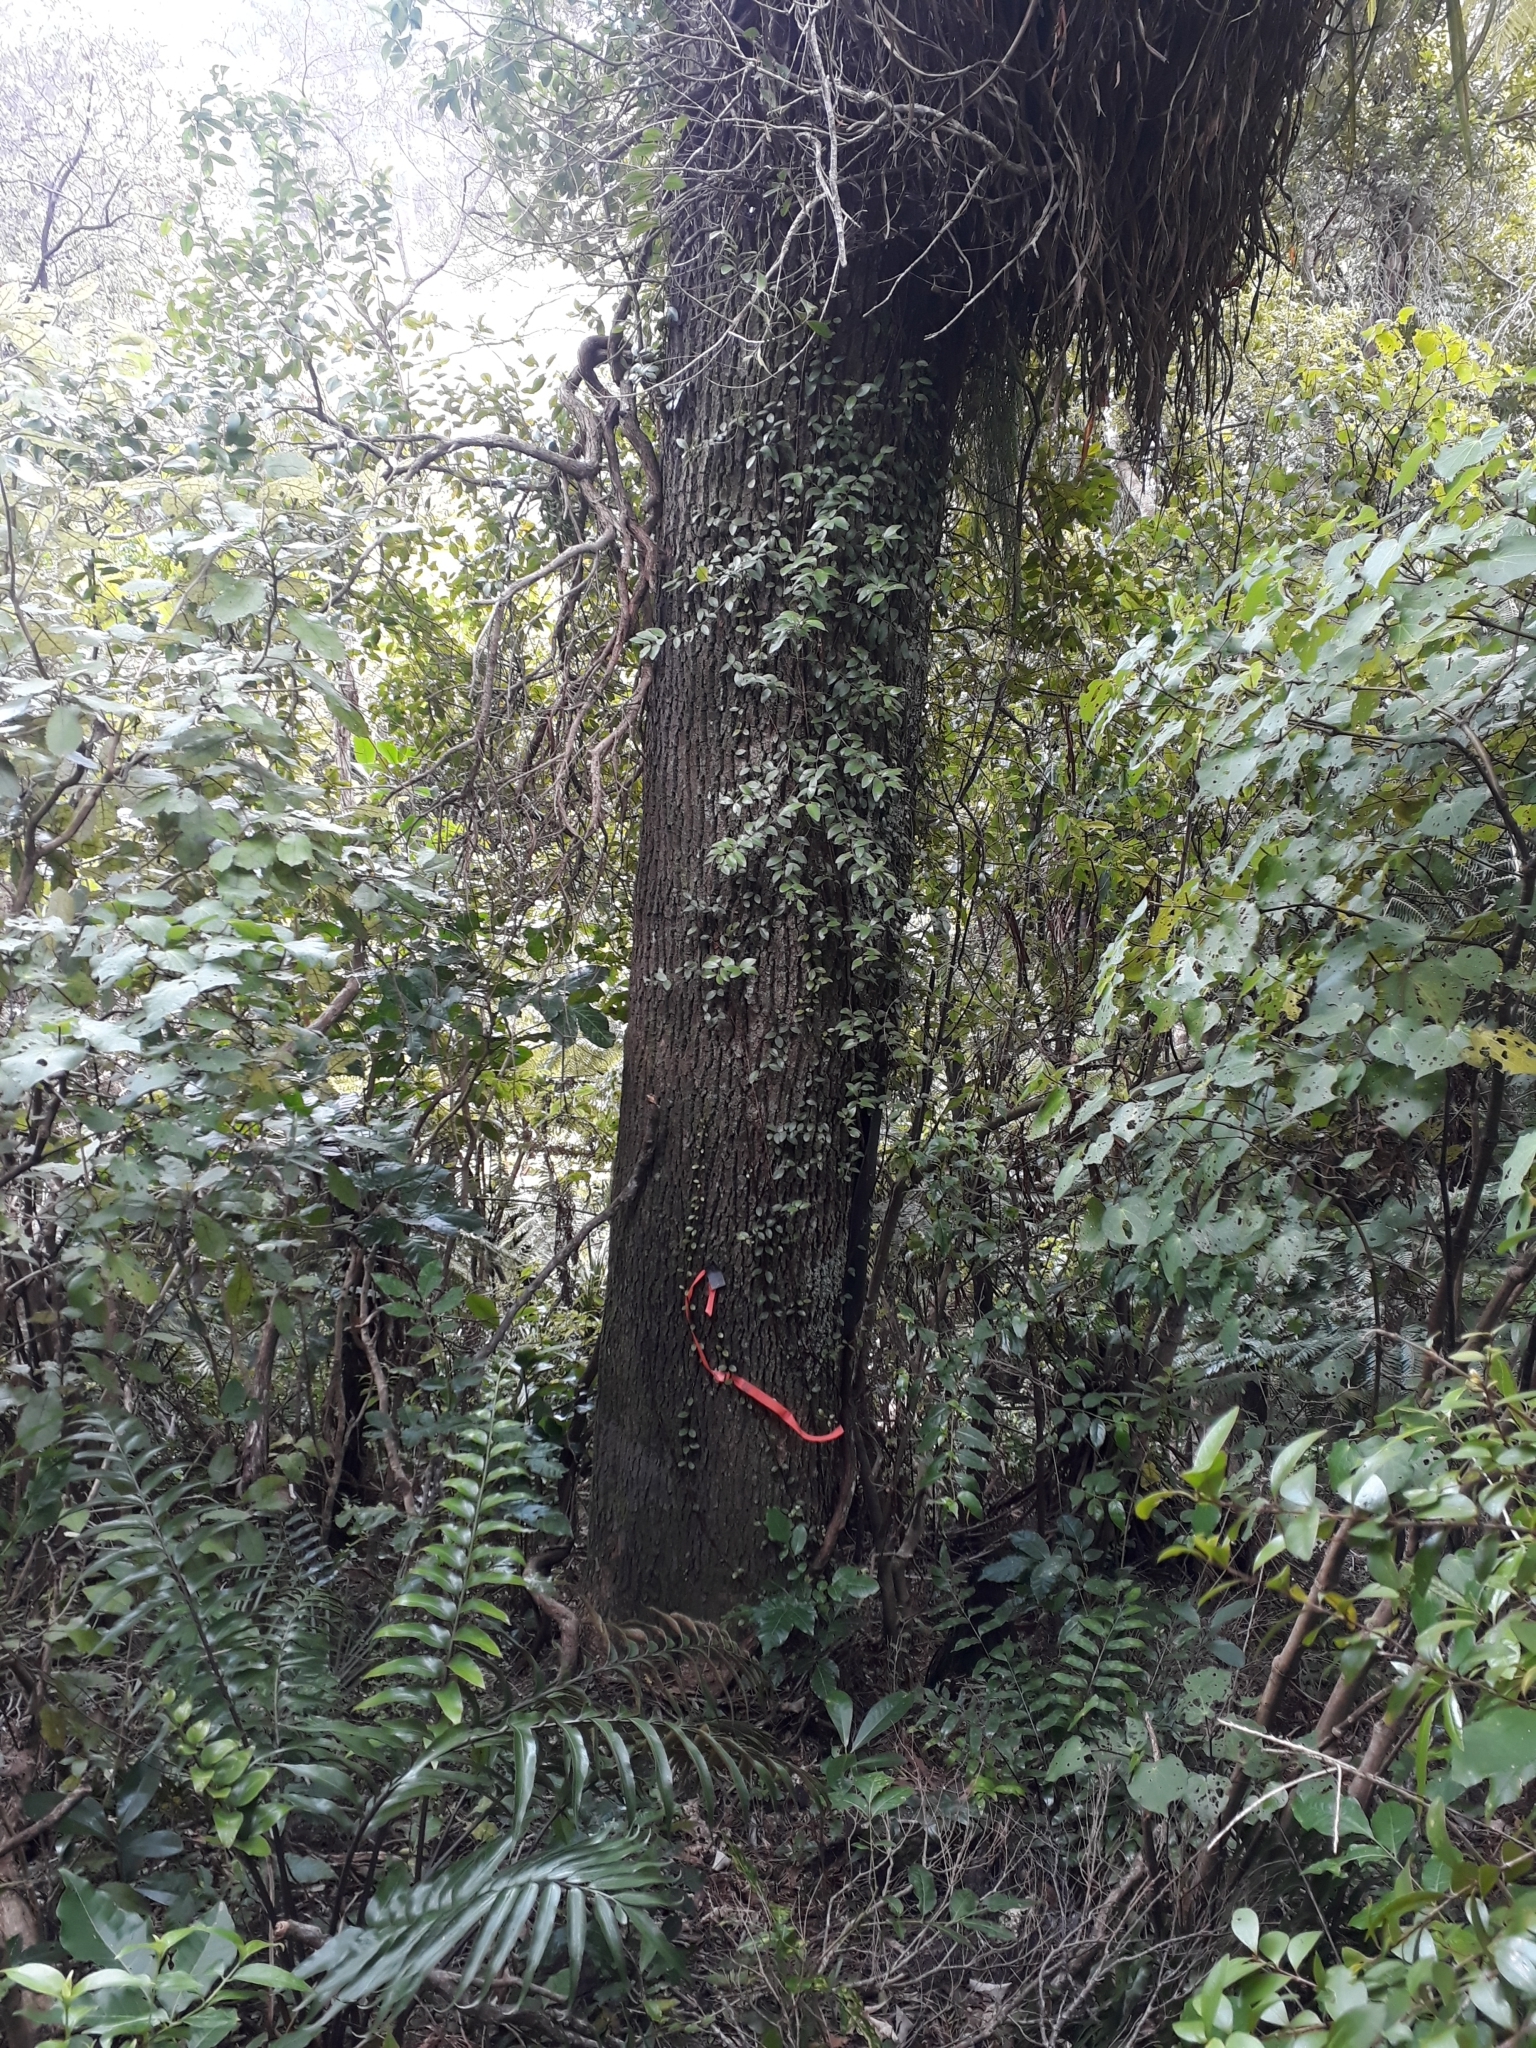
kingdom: Plantae
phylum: Tracheophyta
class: Magnoliopsida
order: Lamiales
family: Oleaceae
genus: Nestegis
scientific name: Nestegis montana
